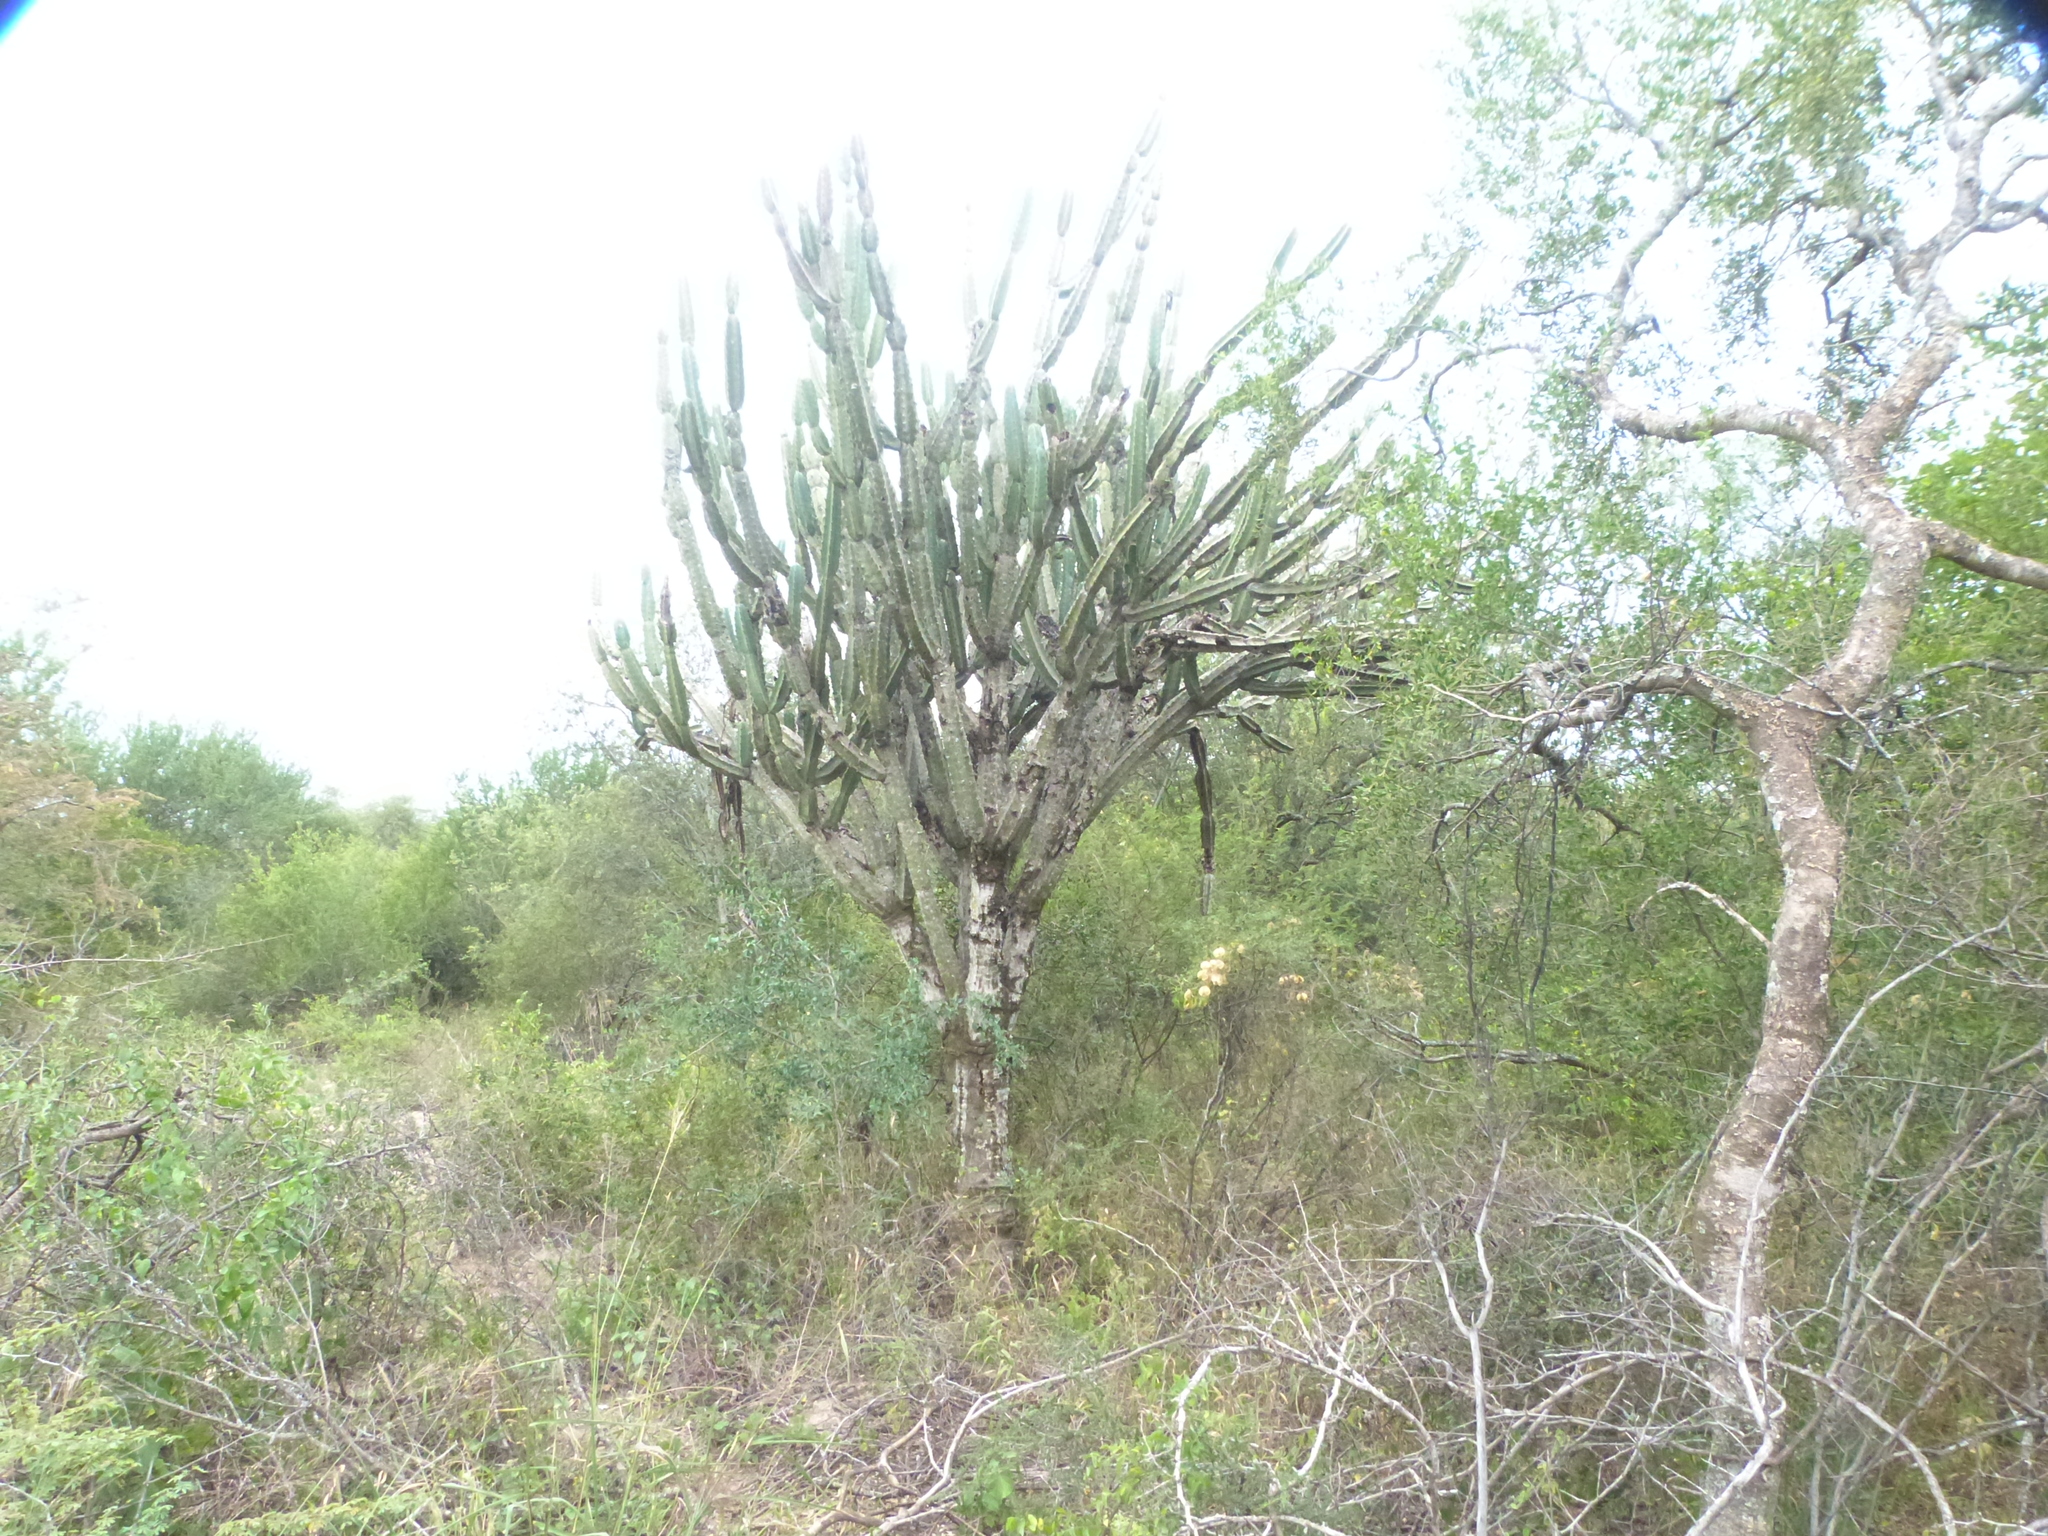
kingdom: Plantae
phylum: Tracheophyta
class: Magnoliopsida
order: Caryophyllales
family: Cactaceae
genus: Cereus
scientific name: Cereus forbesii
